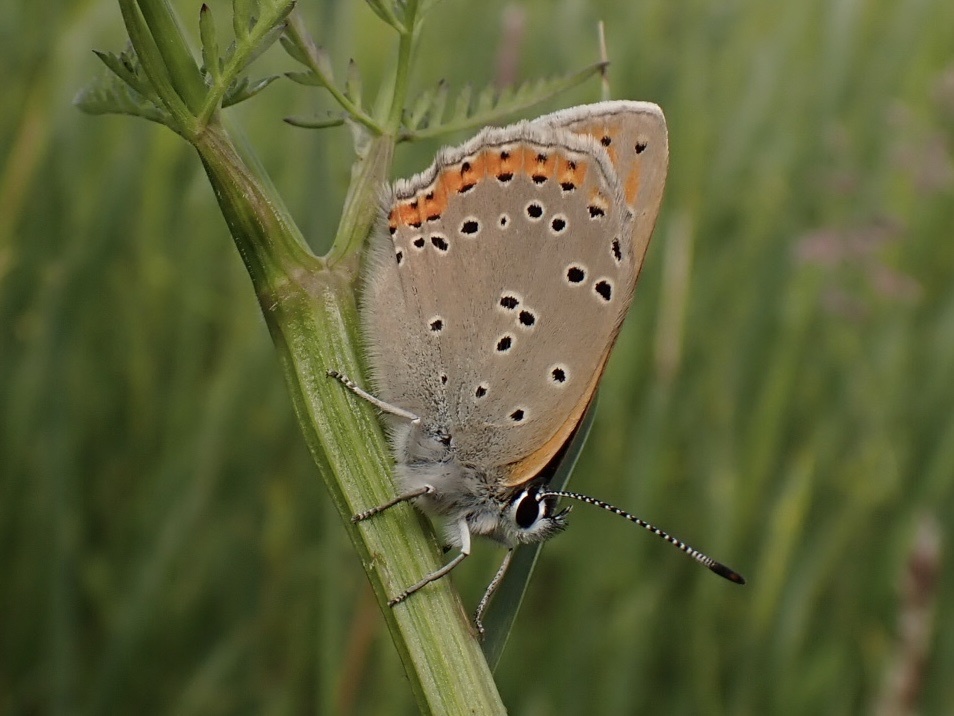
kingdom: Animalia
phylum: Arthropoda
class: Insecta
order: Lepidoptera
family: Lycaenidae
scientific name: Lycaenidae
